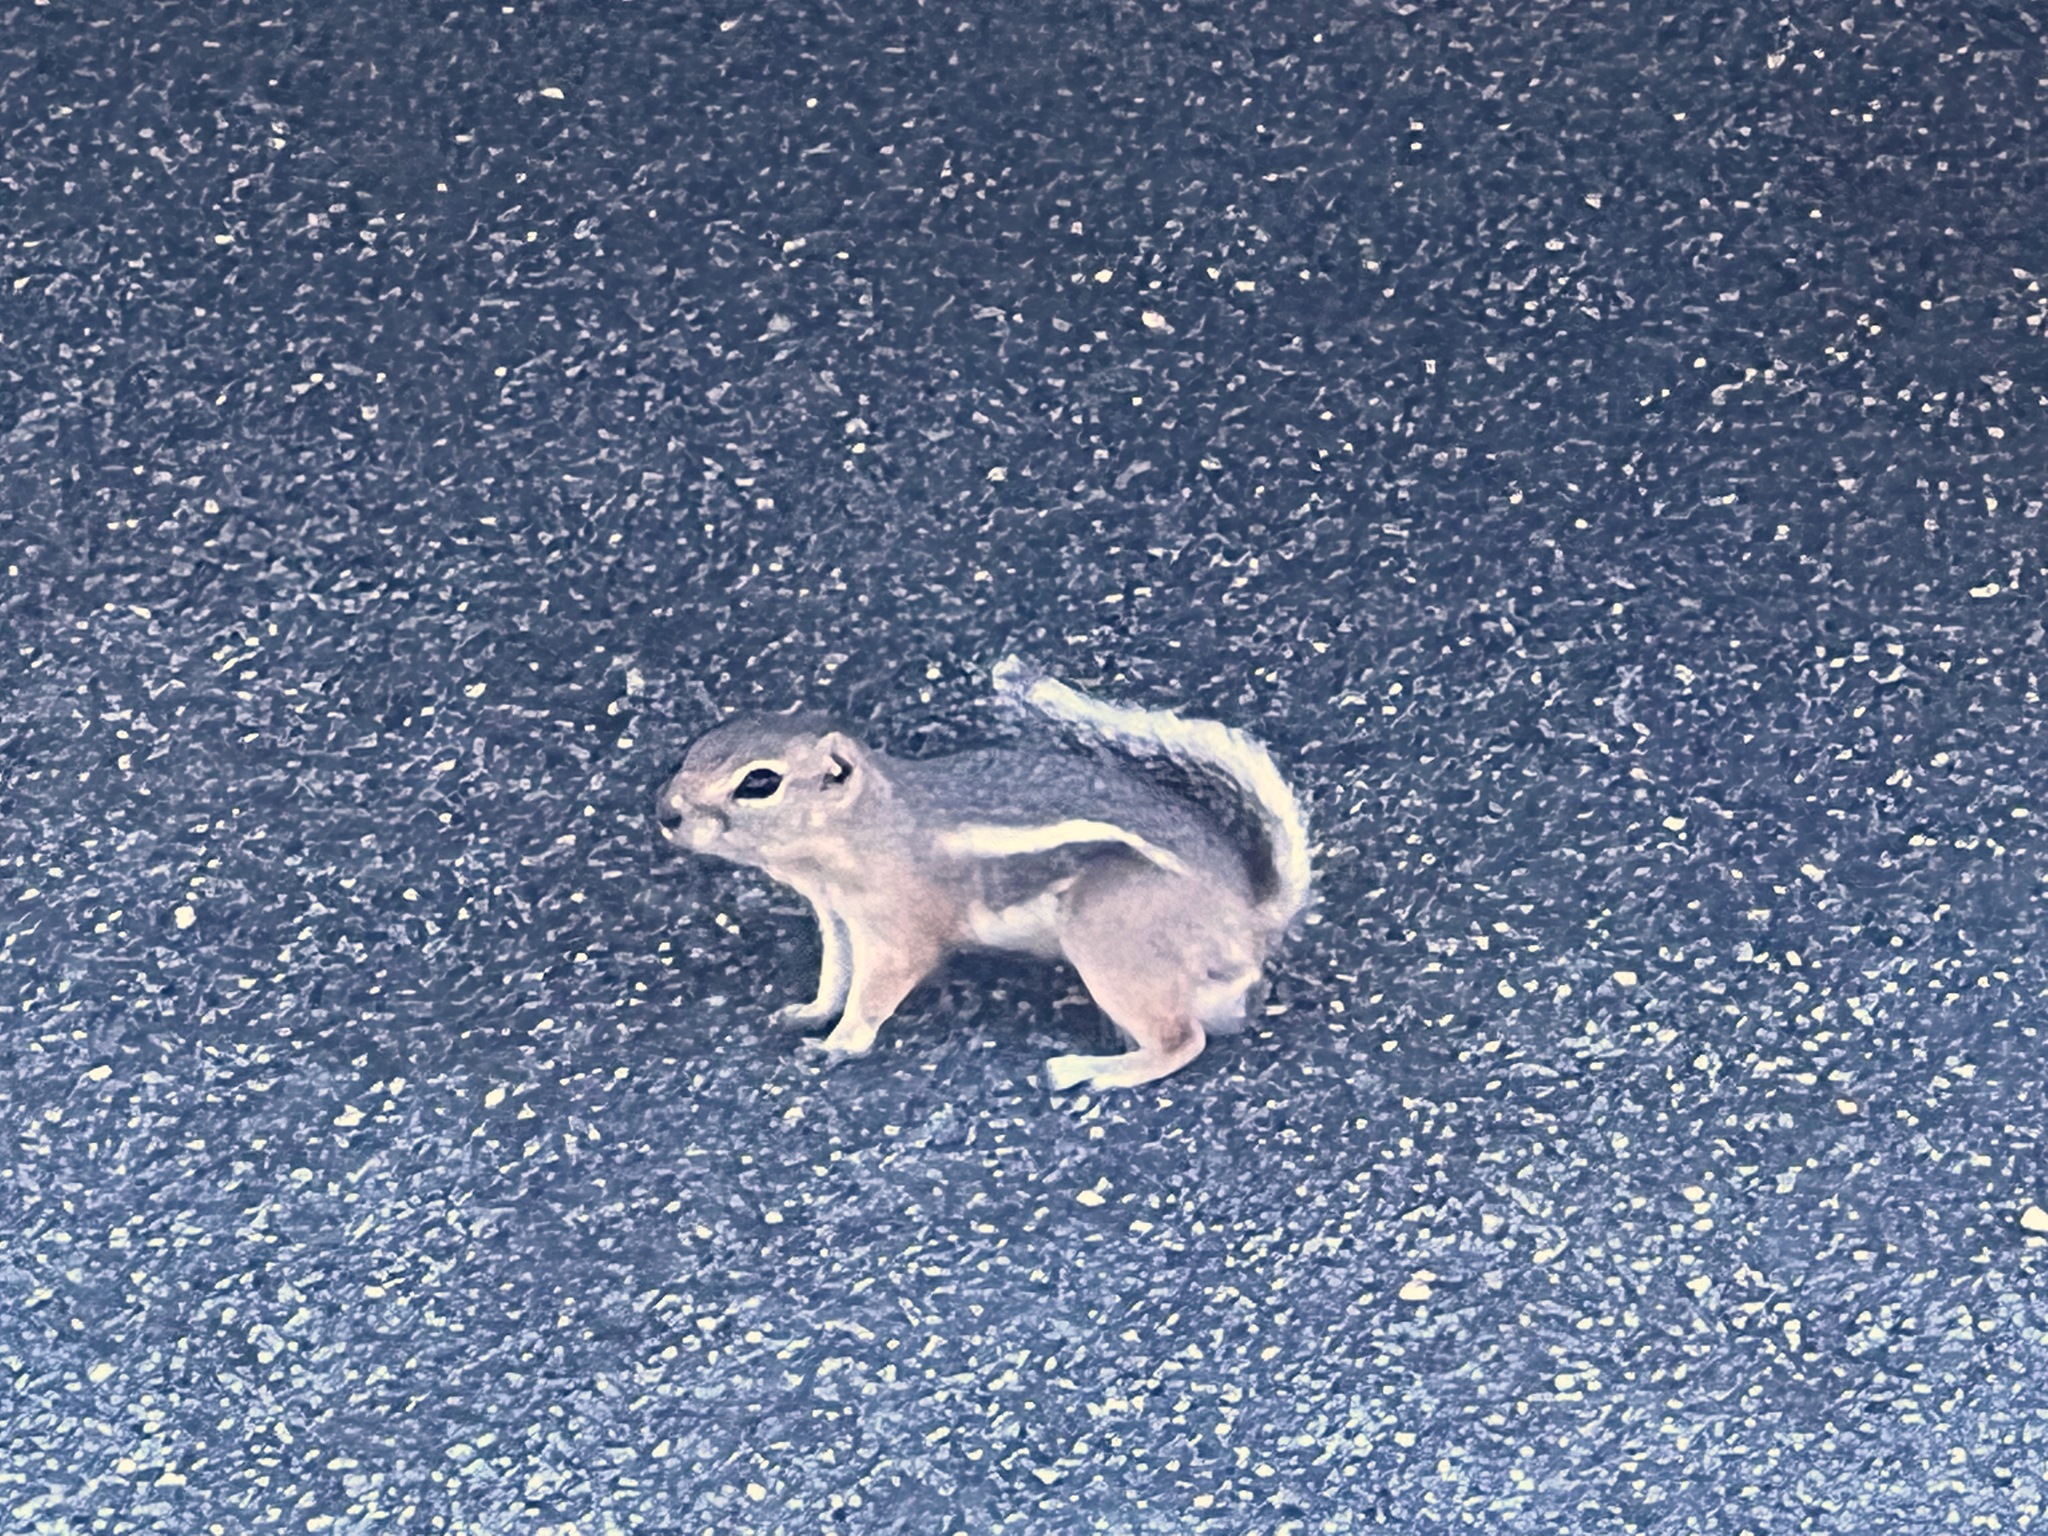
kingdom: Animalia
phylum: Chordata
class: Mammalia
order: Rodentia
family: Sciuridae
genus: Ammospermophilus
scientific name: Ammospermophilus leucurus
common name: White-tailed antelope squirrel
